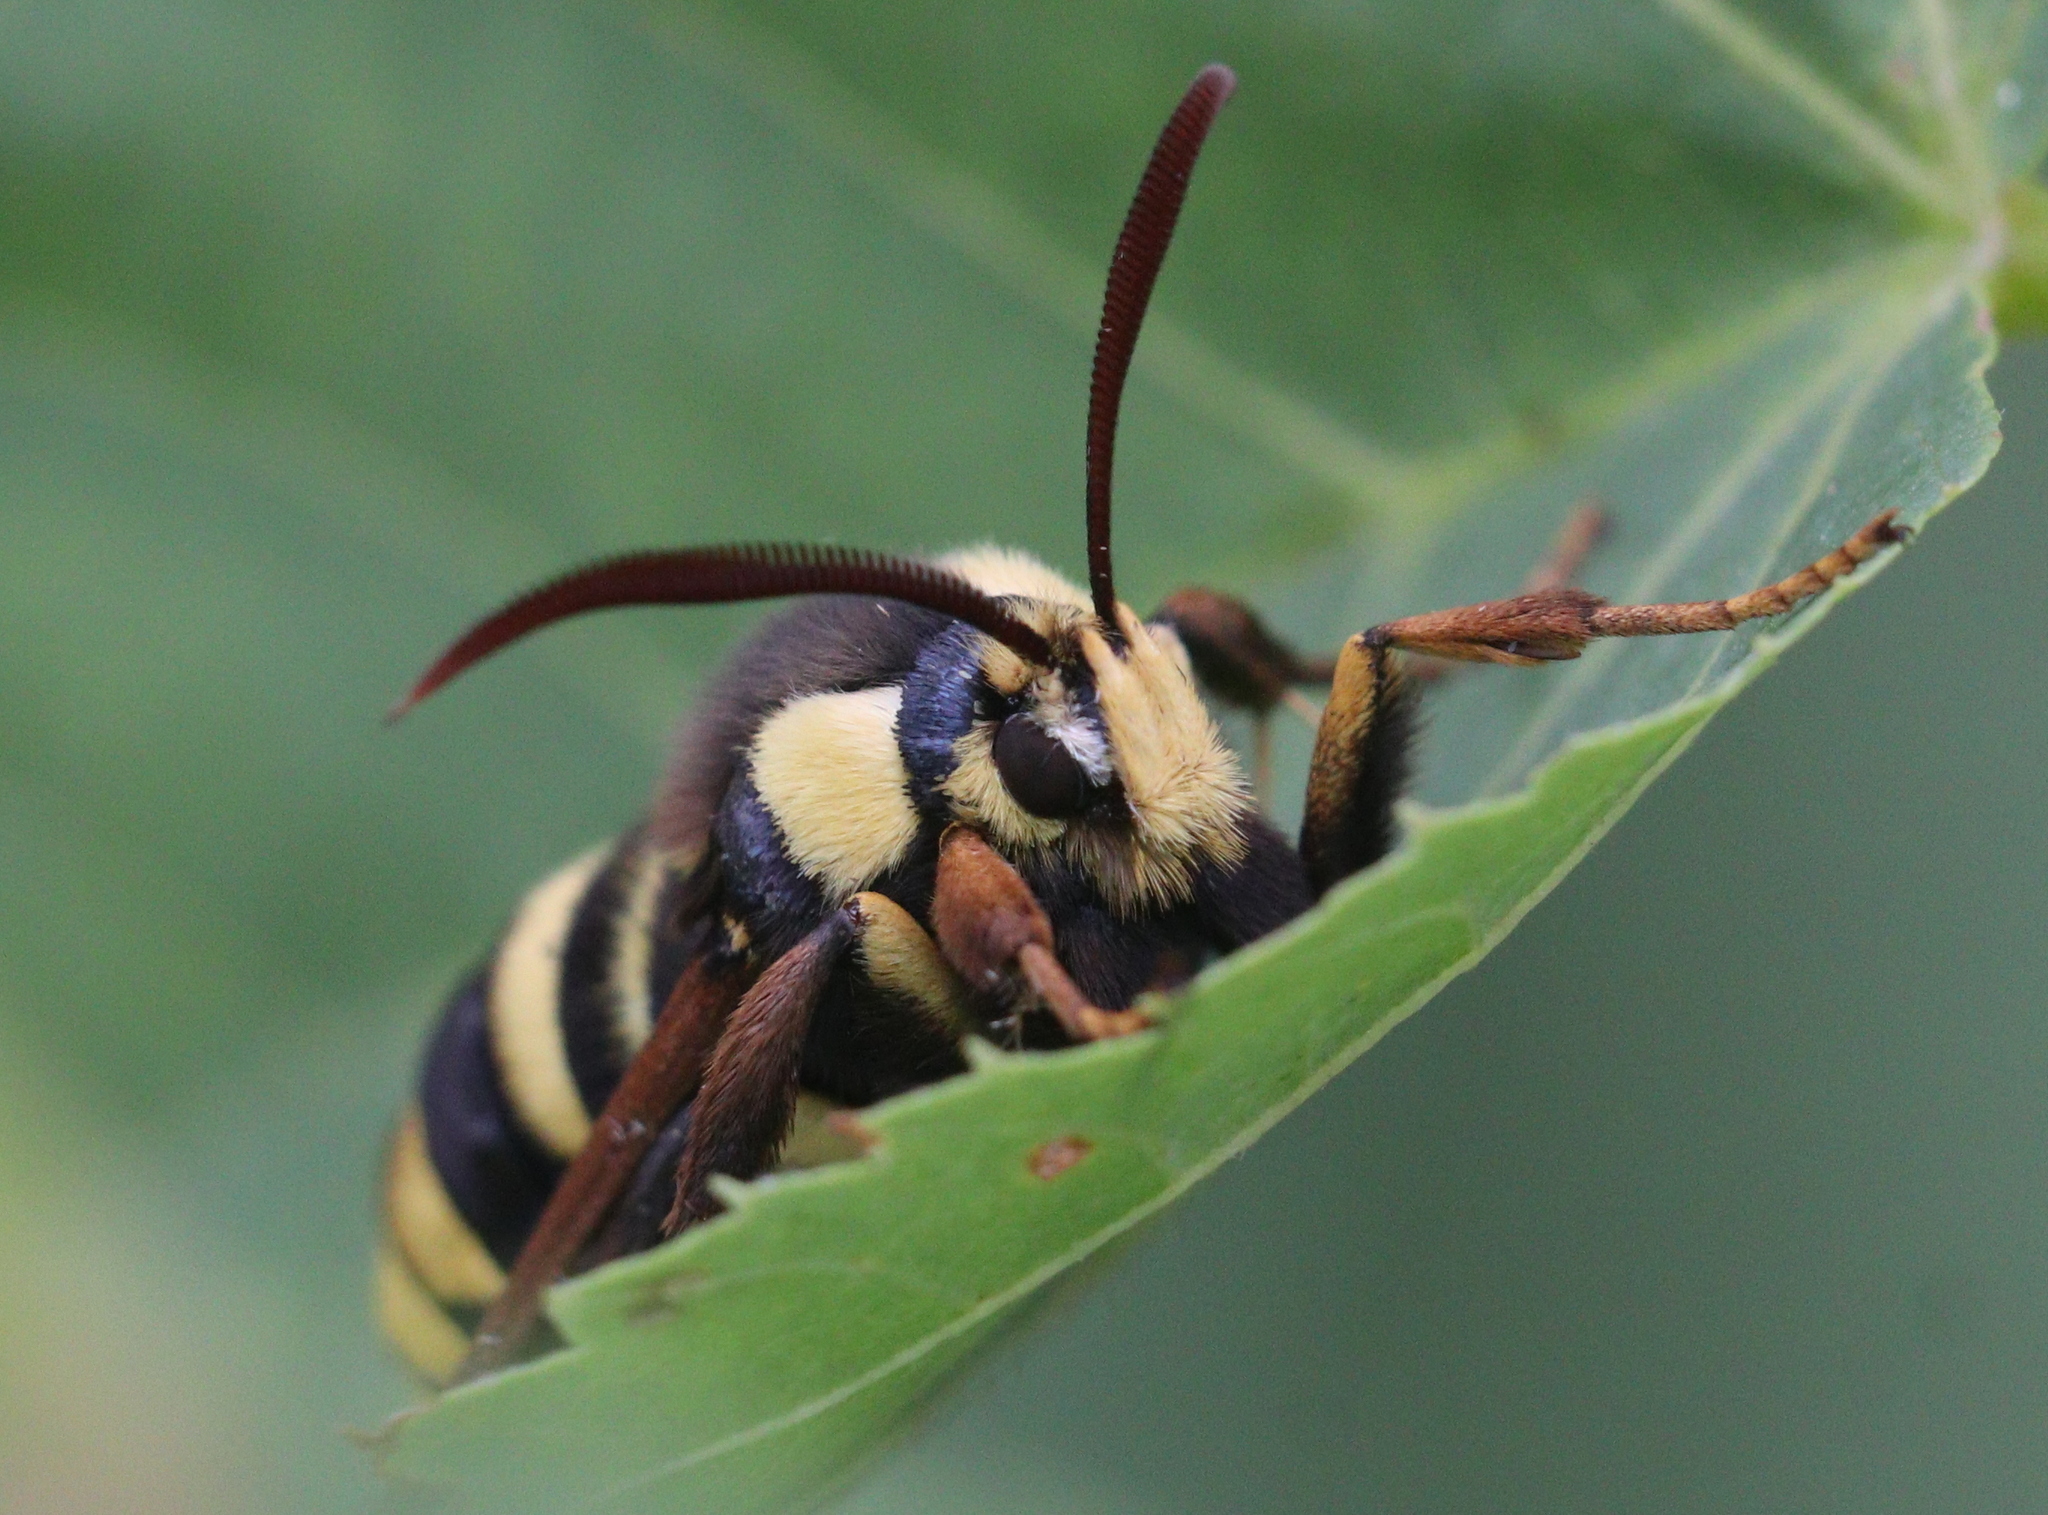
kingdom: Animalia
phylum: Arthropoda
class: Insecta
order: Lepidoptera
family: Sesiidae
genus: Sesia
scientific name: Sesia apiformis
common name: Hornet moth
